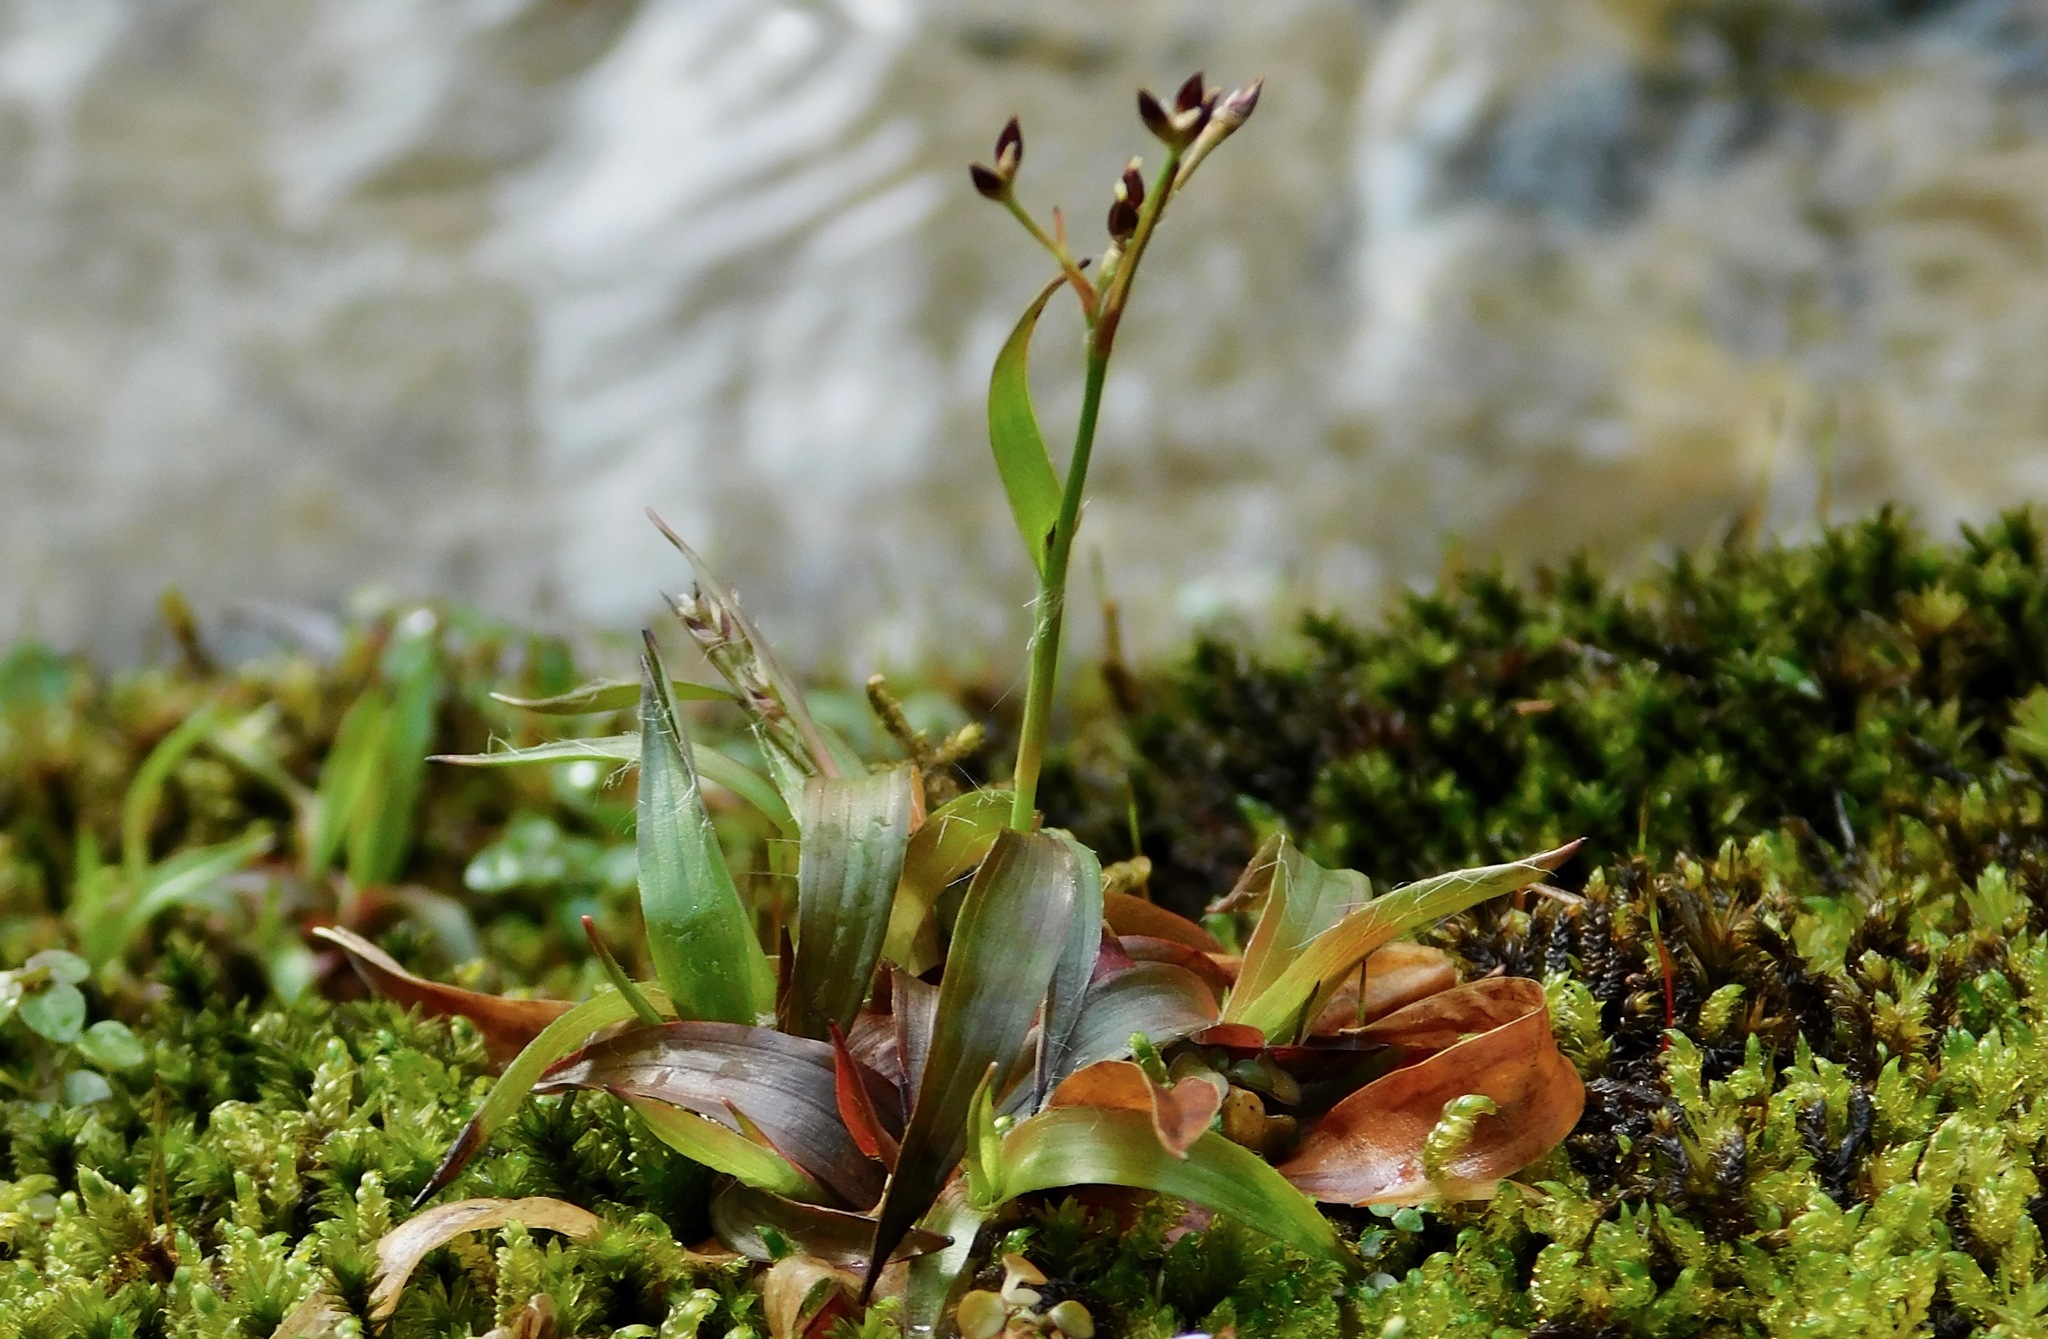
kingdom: Plantae
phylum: Tracheophyta
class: Liliopsida
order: Poales
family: Juncaceae
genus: Luzula
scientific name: Luzula echinata
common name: Hedgehog woodrush
